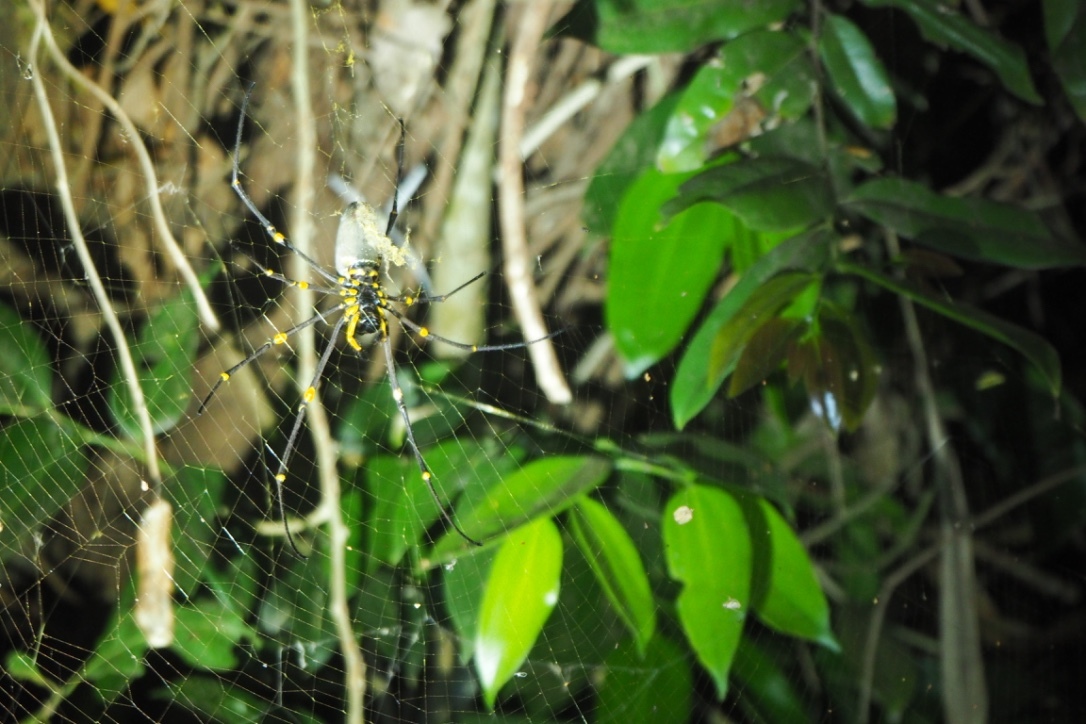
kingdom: Animalia
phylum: Arthropoda
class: Arachnida
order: Araneae
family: Araneidae
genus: Nephila
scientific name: Nephila pilipes
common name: Giant golden orb weaver
